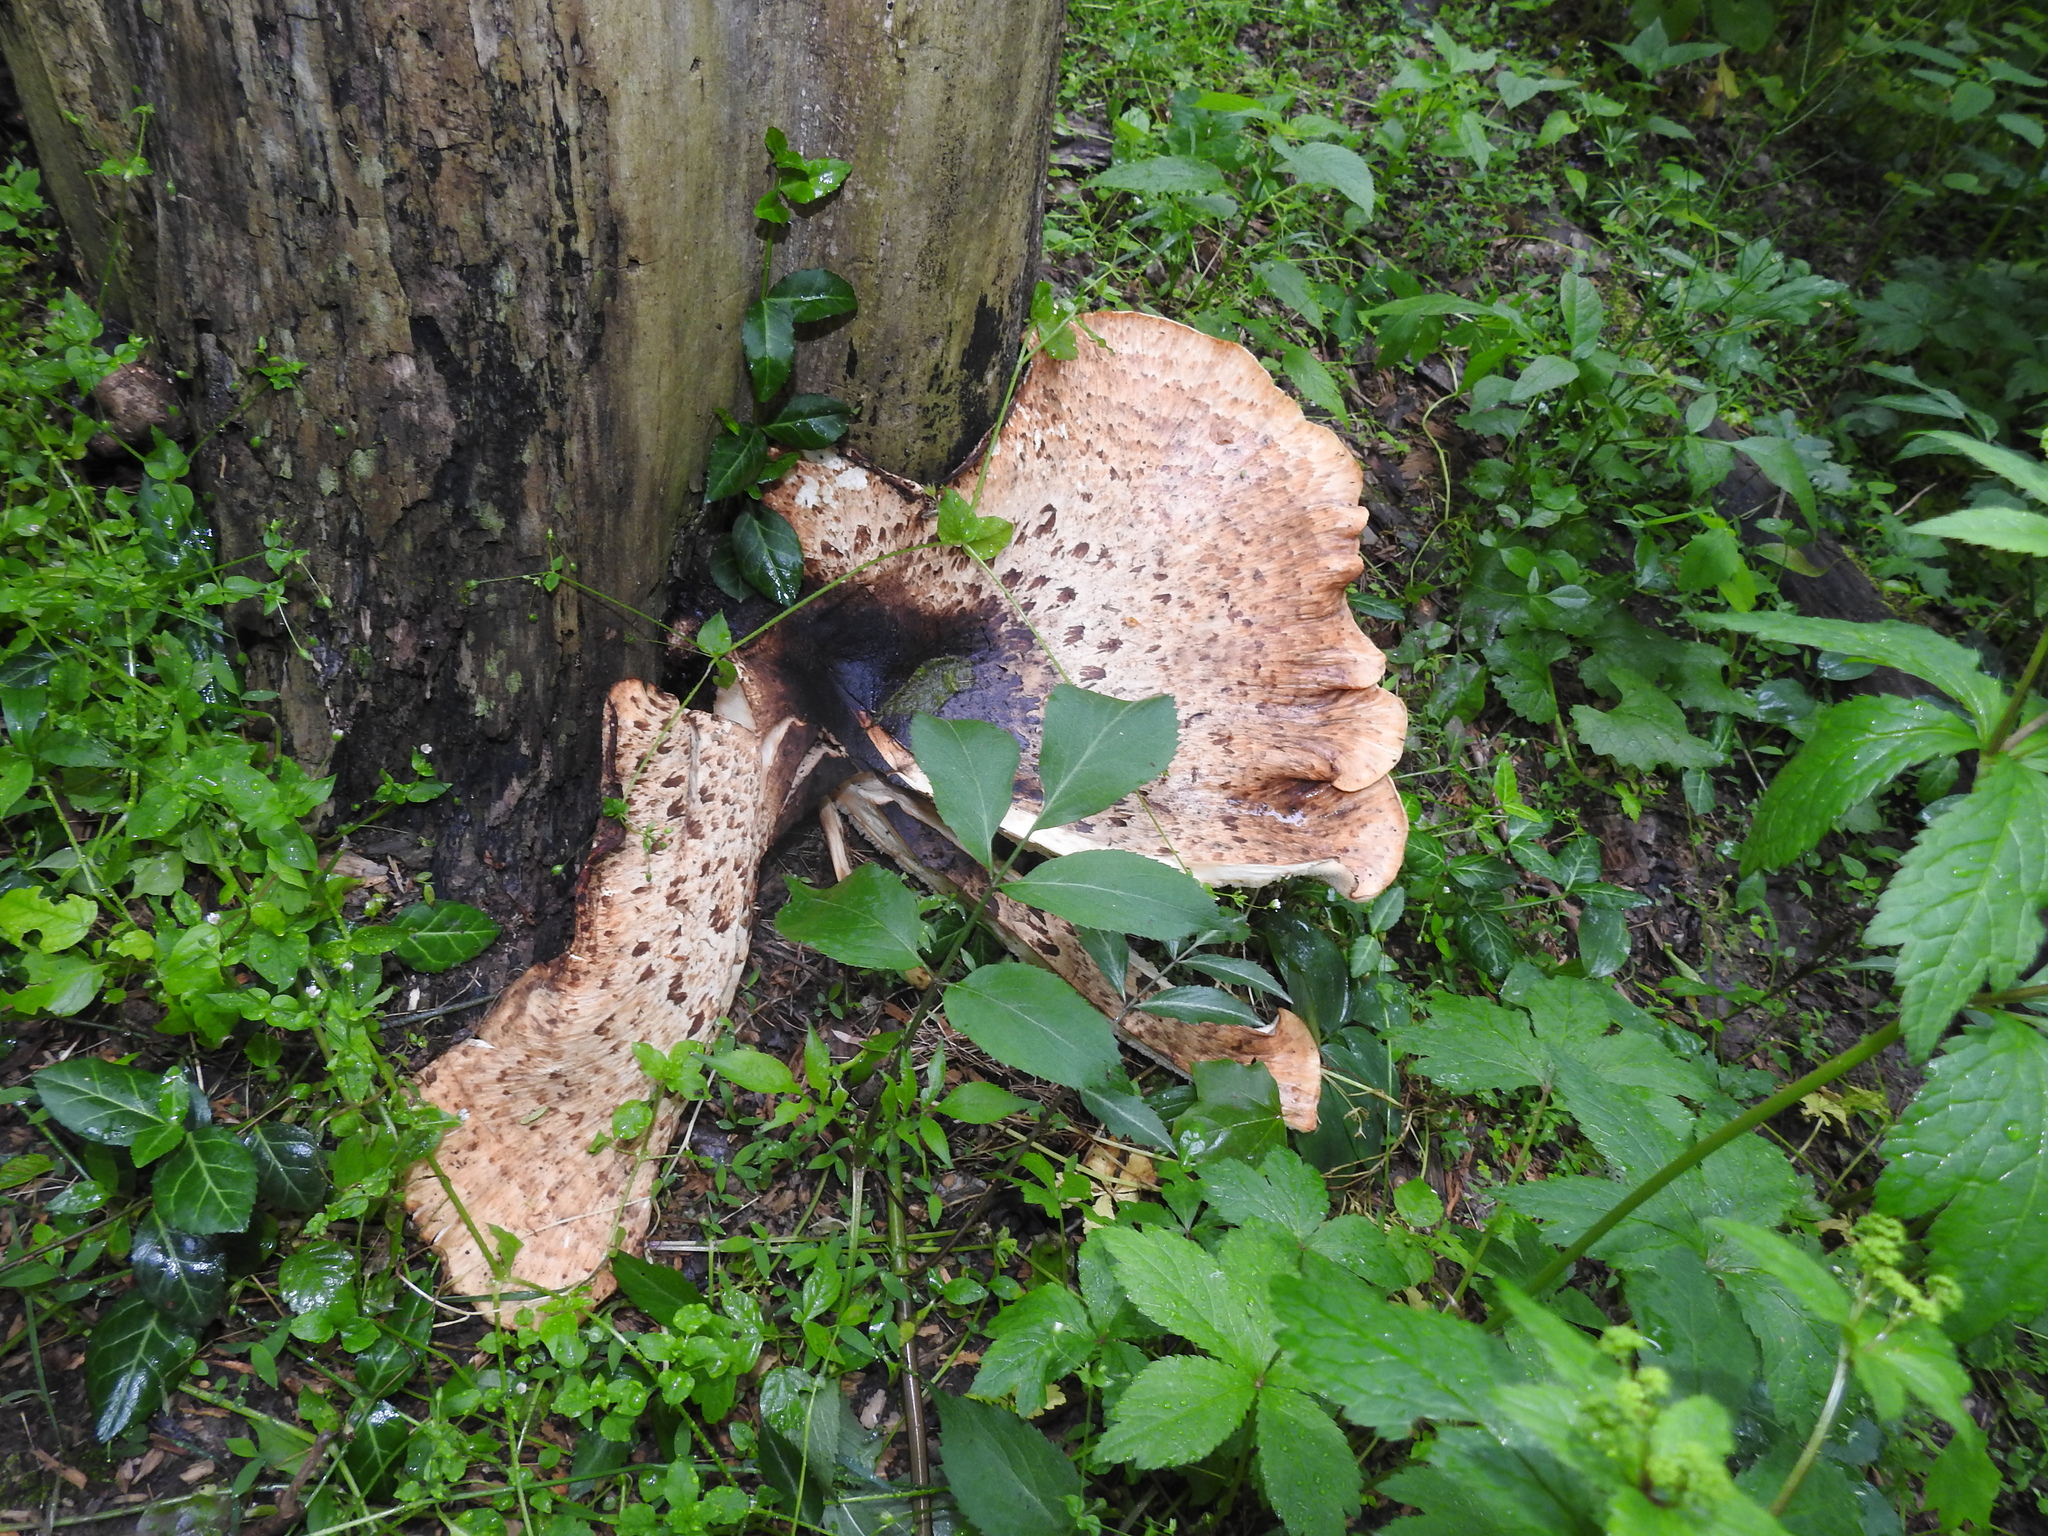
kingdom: Fungi
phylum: Basidiomycota
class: Agaricomycetes
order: Polyporales
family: Polyporaceae
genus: Cerioporus
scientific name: Cerioporus squamosus
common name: Dryad's saddle
